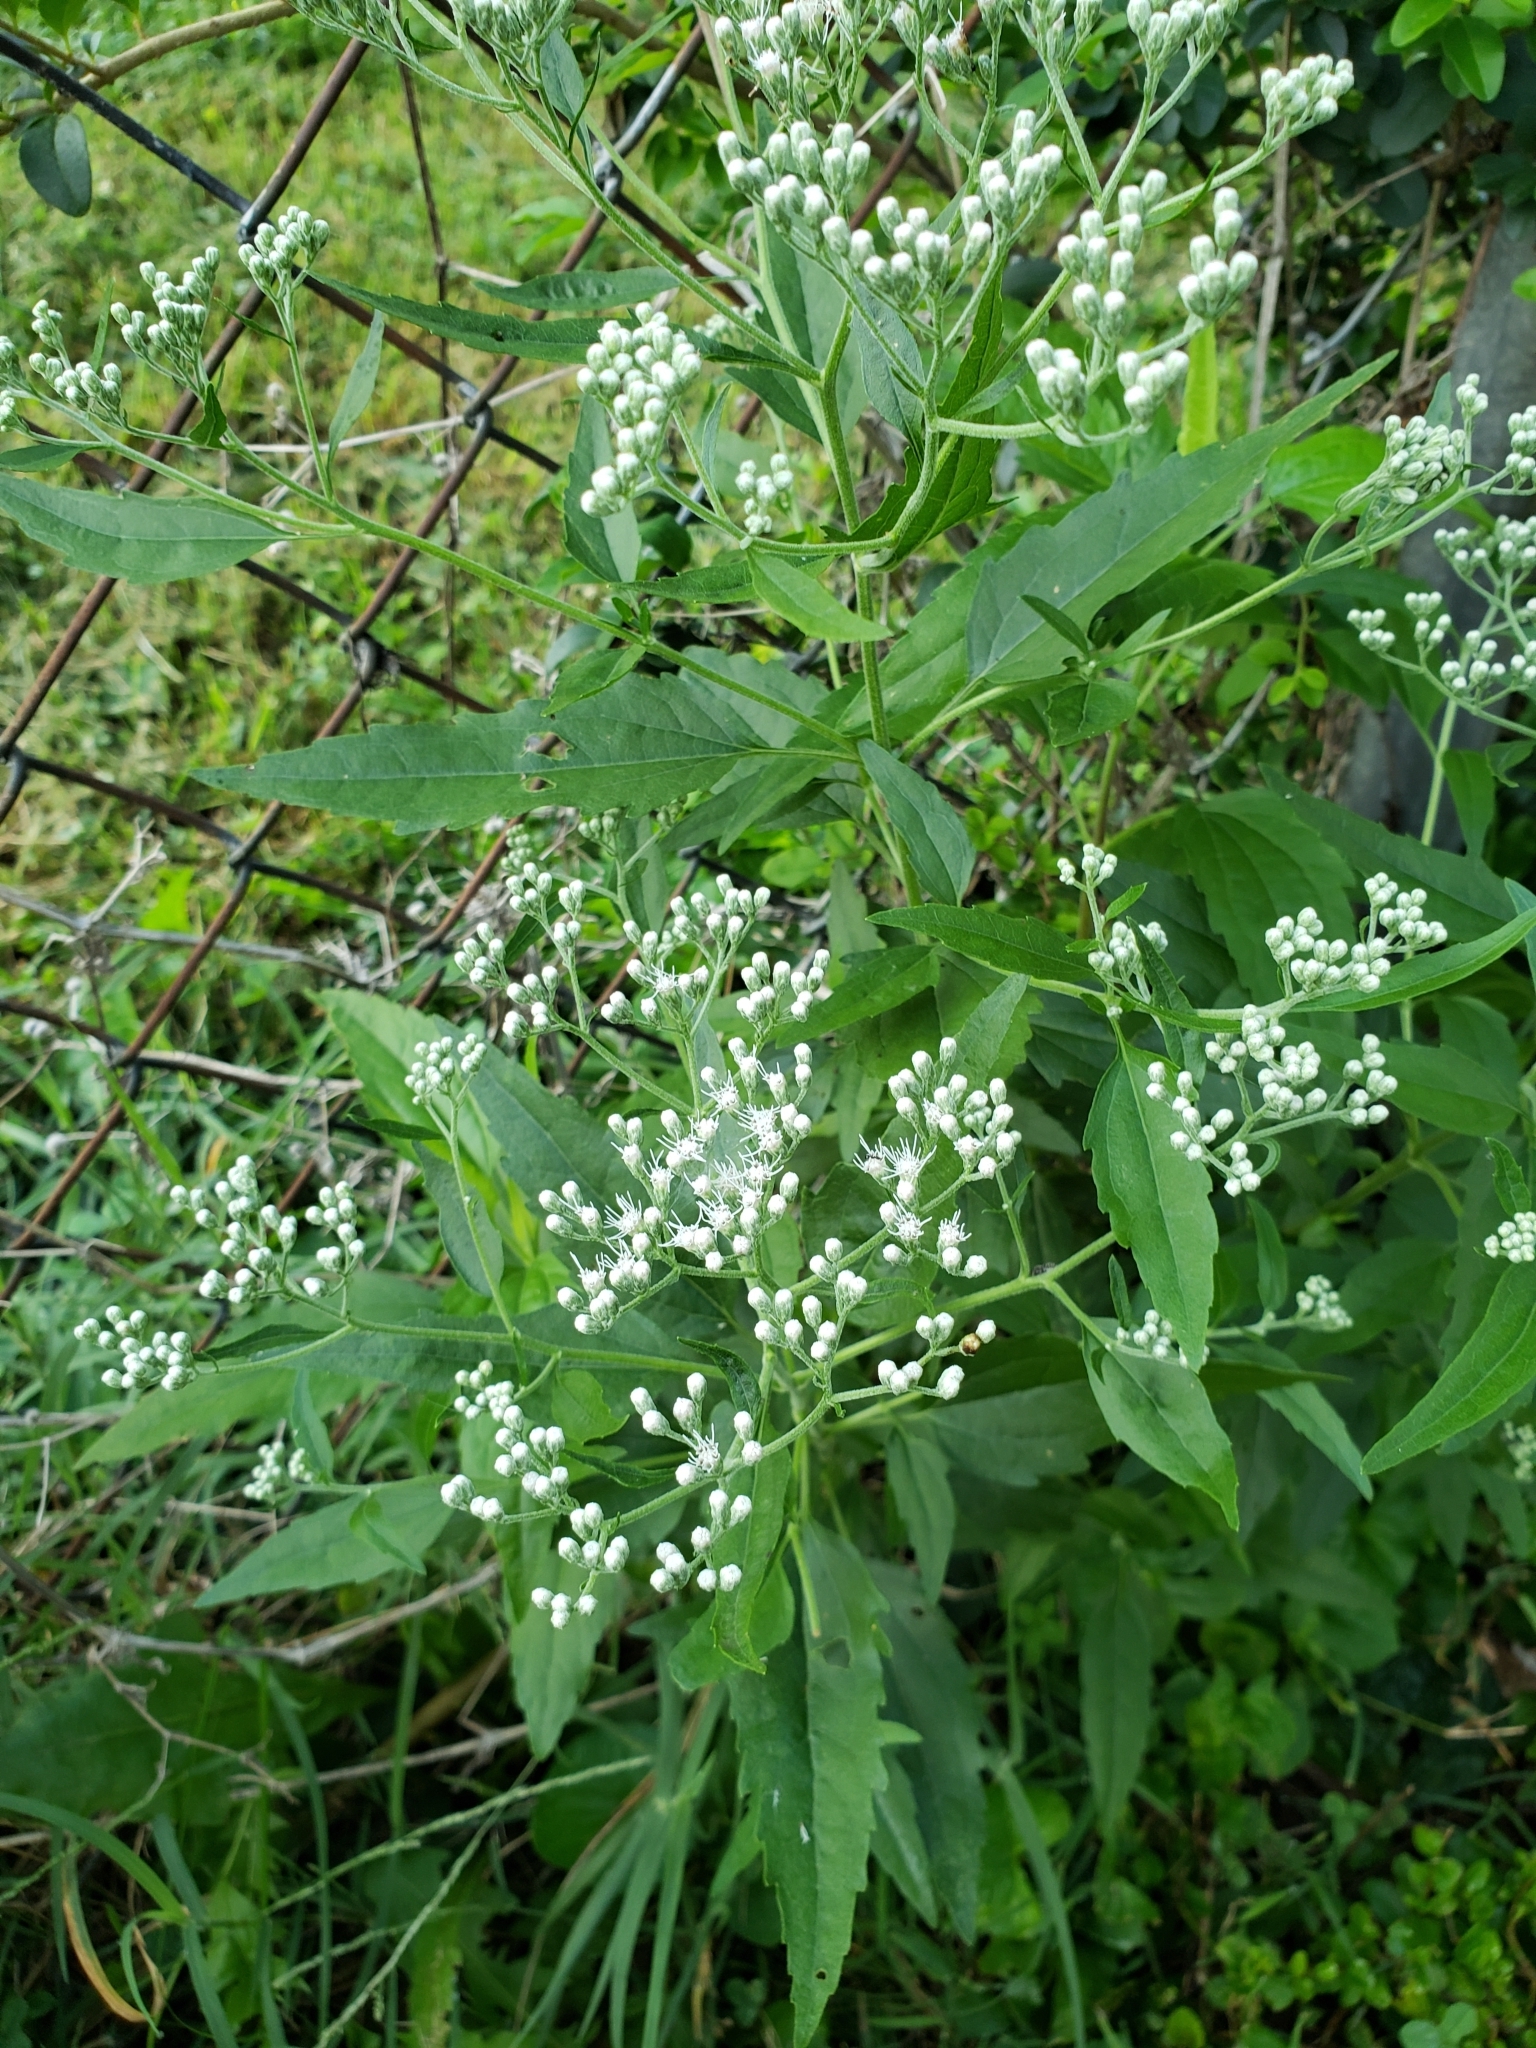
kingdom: Plantae
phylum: Tracheophyta
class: Magnoliopsida
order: Asterales
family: Asteraceae
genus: Eupatorium
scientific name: Eupatorium serotinum
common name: Late boneset
